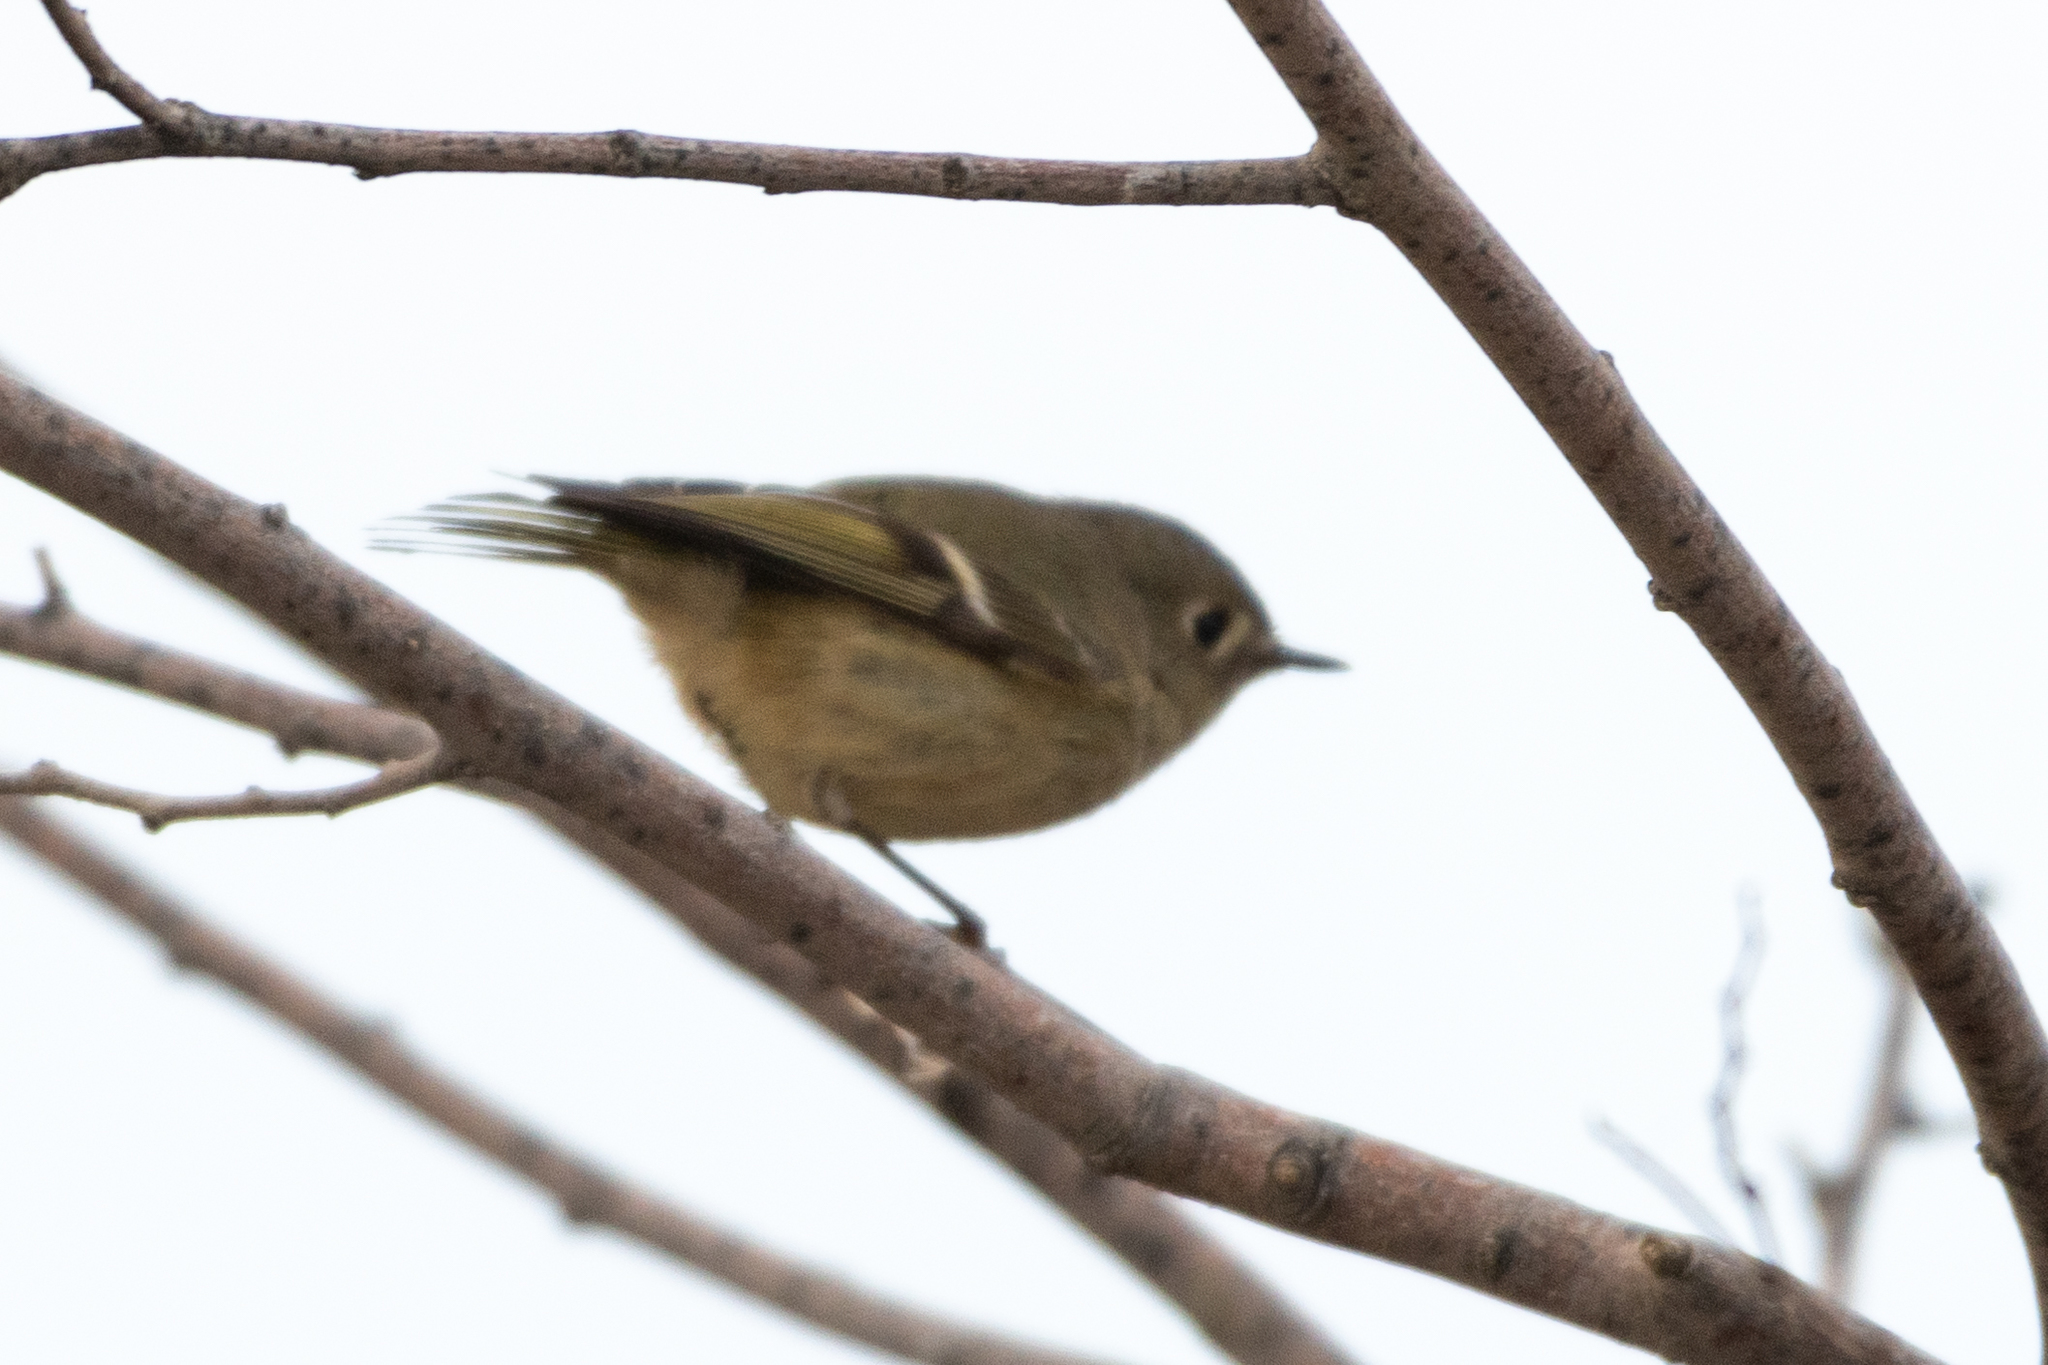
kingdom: Animalia
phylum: Chordata
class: Aves
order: Passeriformes
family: Regulidae
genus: Regulus
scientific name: Regulus calendula
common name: Ruby-crowned kinglet
